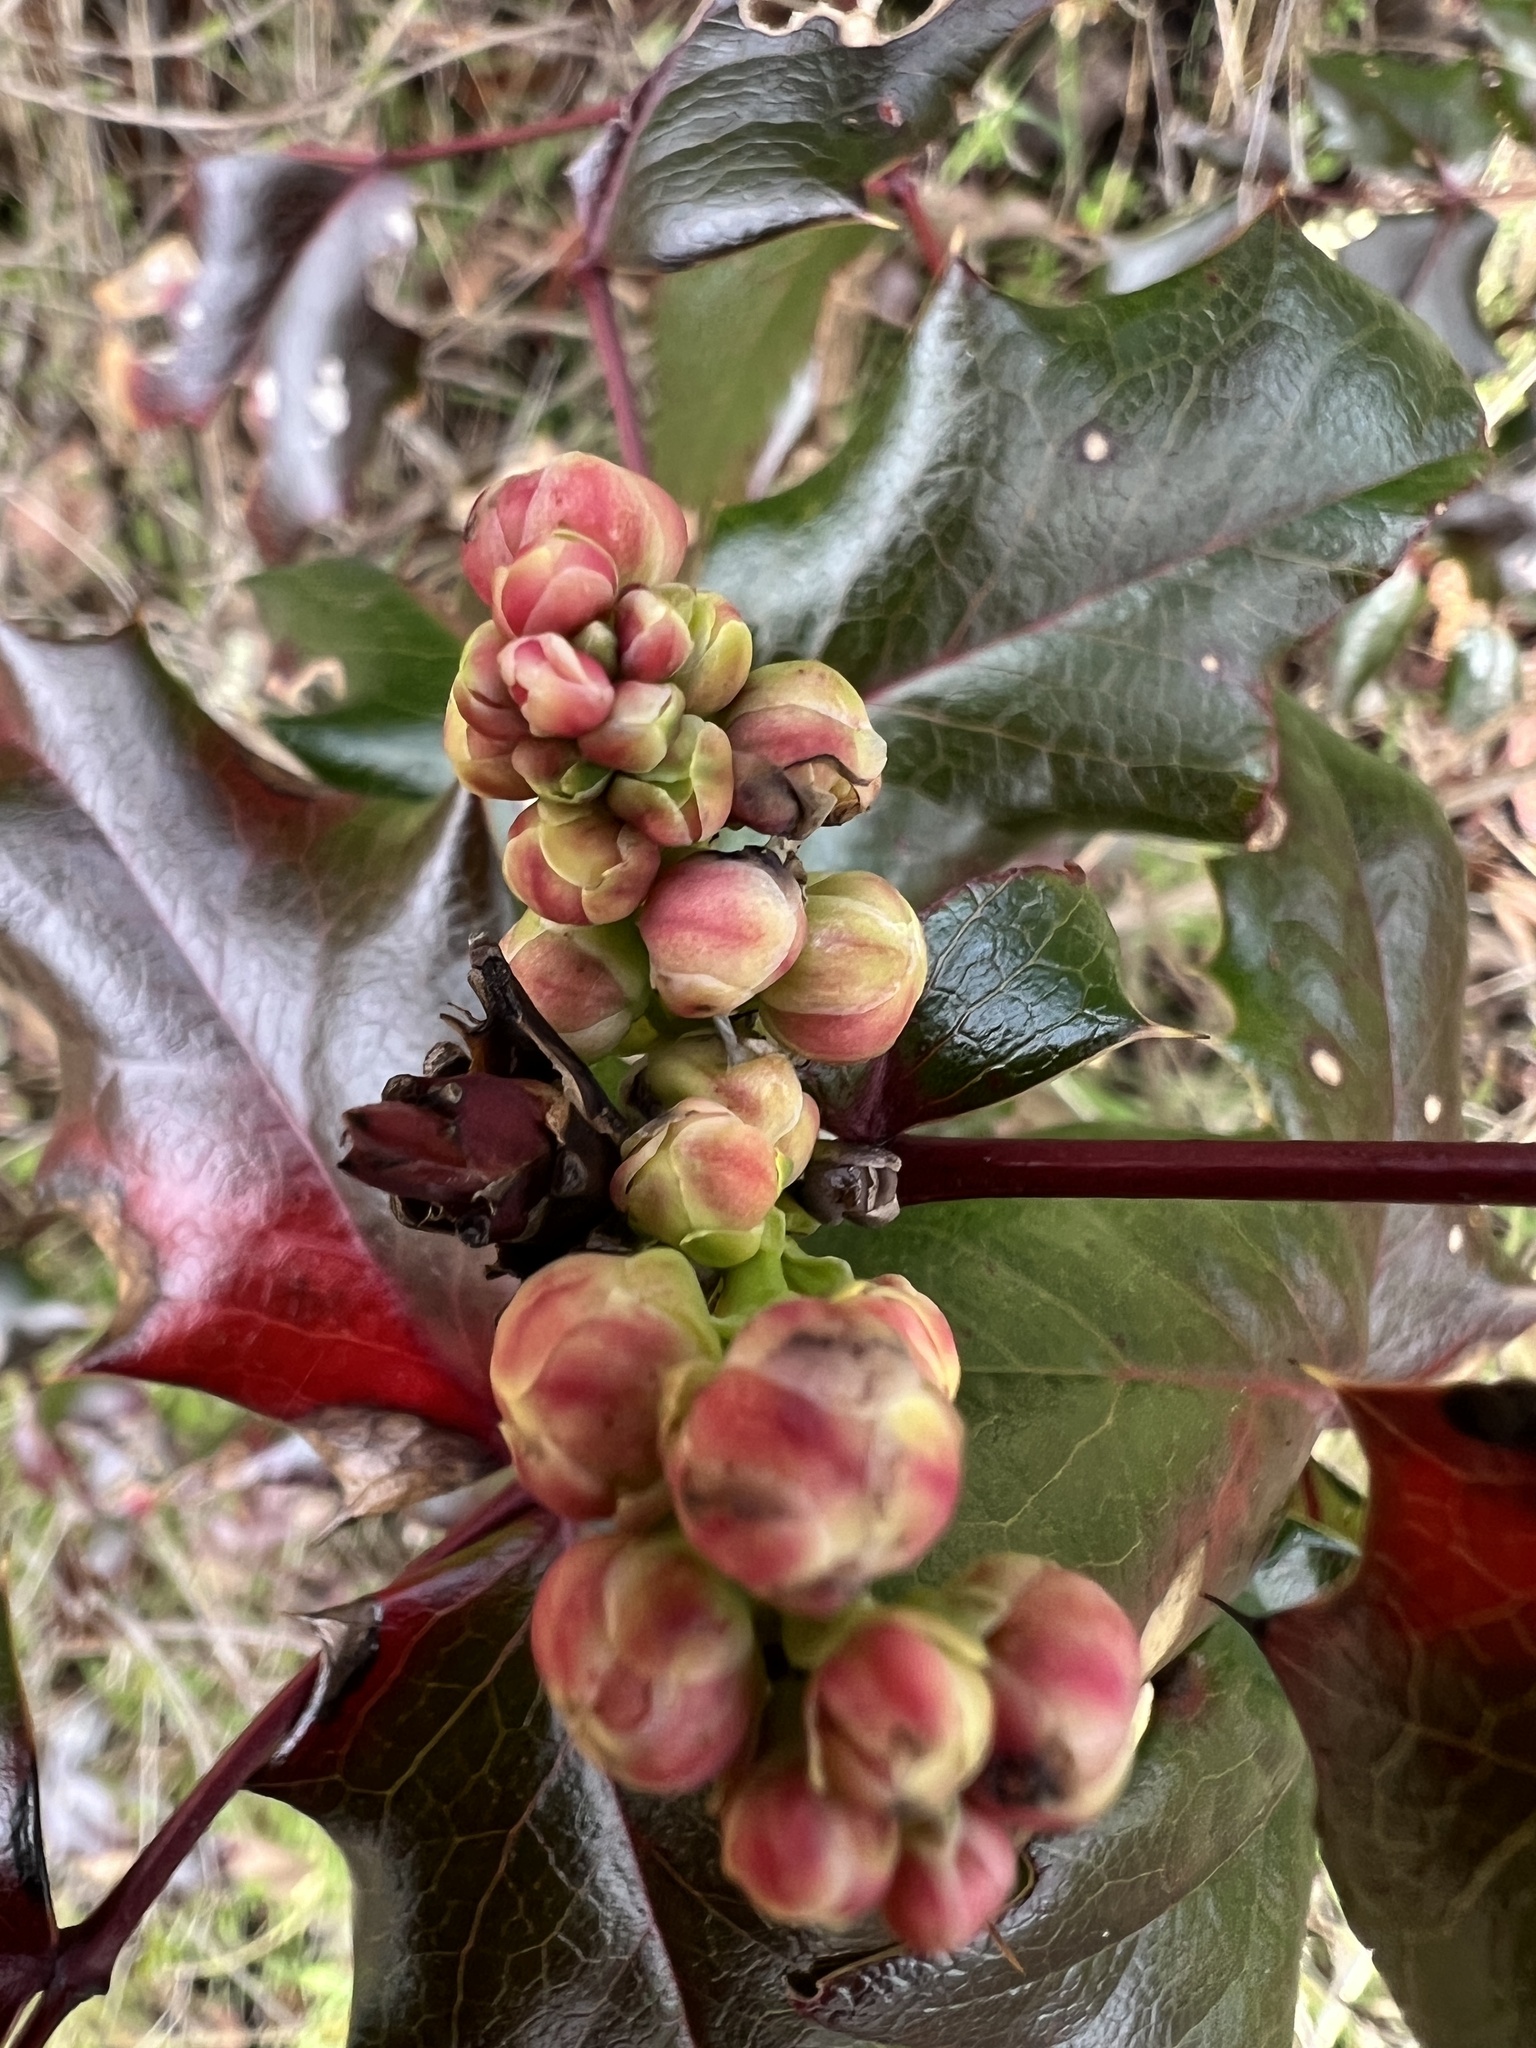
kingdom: Plantae
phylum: Tracheophyta
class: Magnoliopsida
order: Ranunculales
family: Berberidaceae
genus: Mahonia
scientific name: Mahonia aquifolium
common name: Oregon-grape
